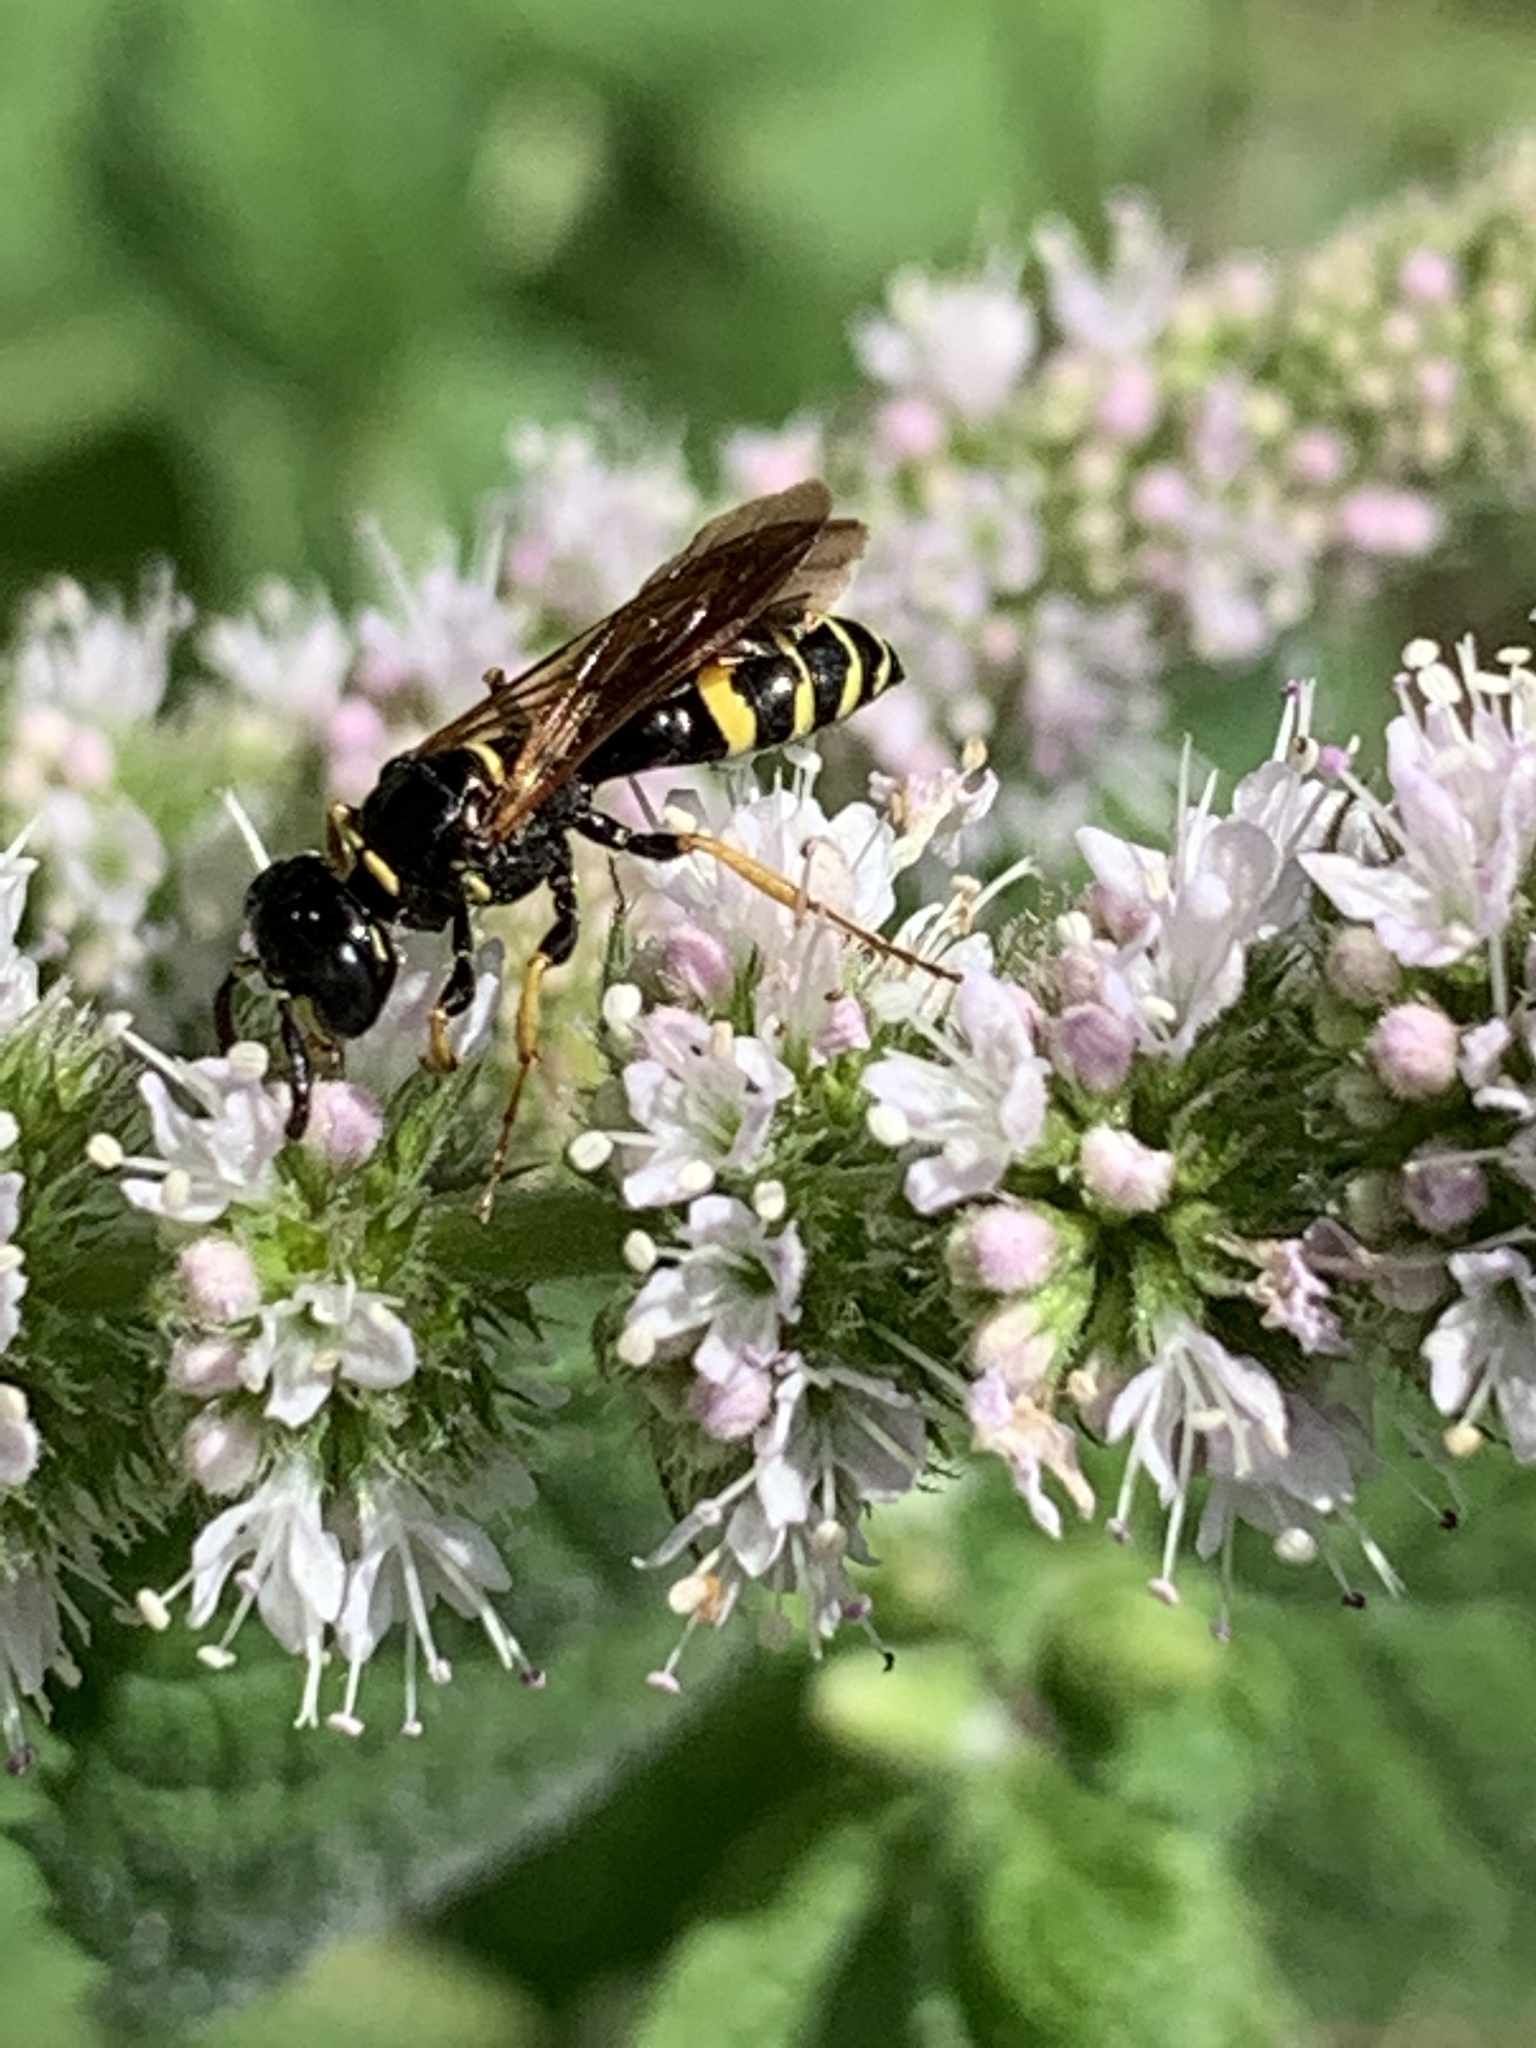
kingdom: Animalia
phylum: Arthropoda
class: Insecta
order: Hymenoptera
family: Crabronidae
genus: Philanthus
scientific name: Philanthus bilunatus
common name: Two moons beewolf
